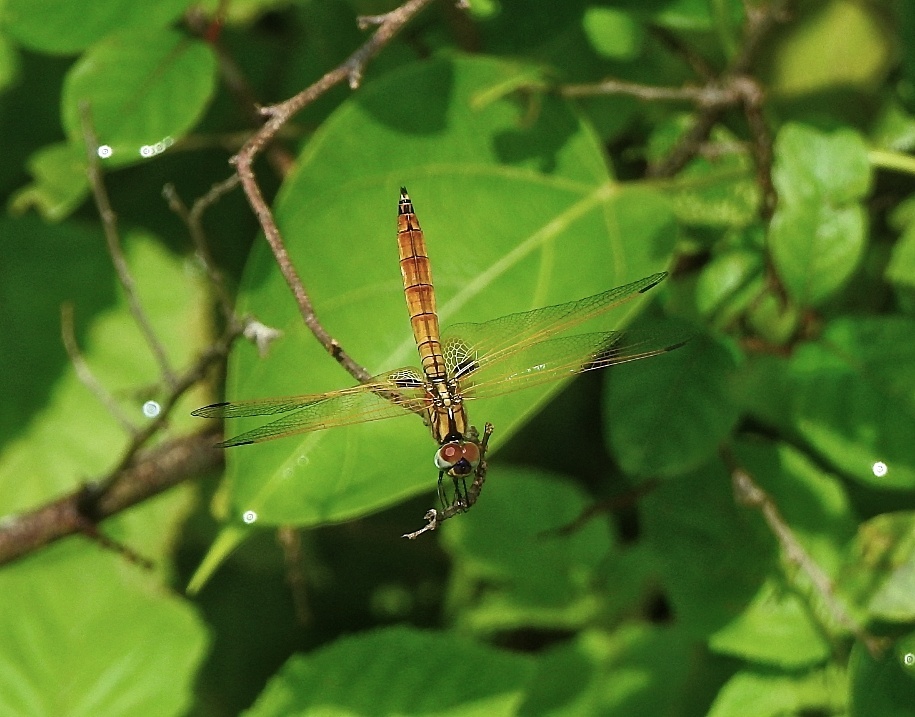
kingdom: Animalia
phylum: Arthropoda
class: Insecta
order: Odonata
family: Libellulidae
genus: Trithemis
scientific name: Trithemis aurora
